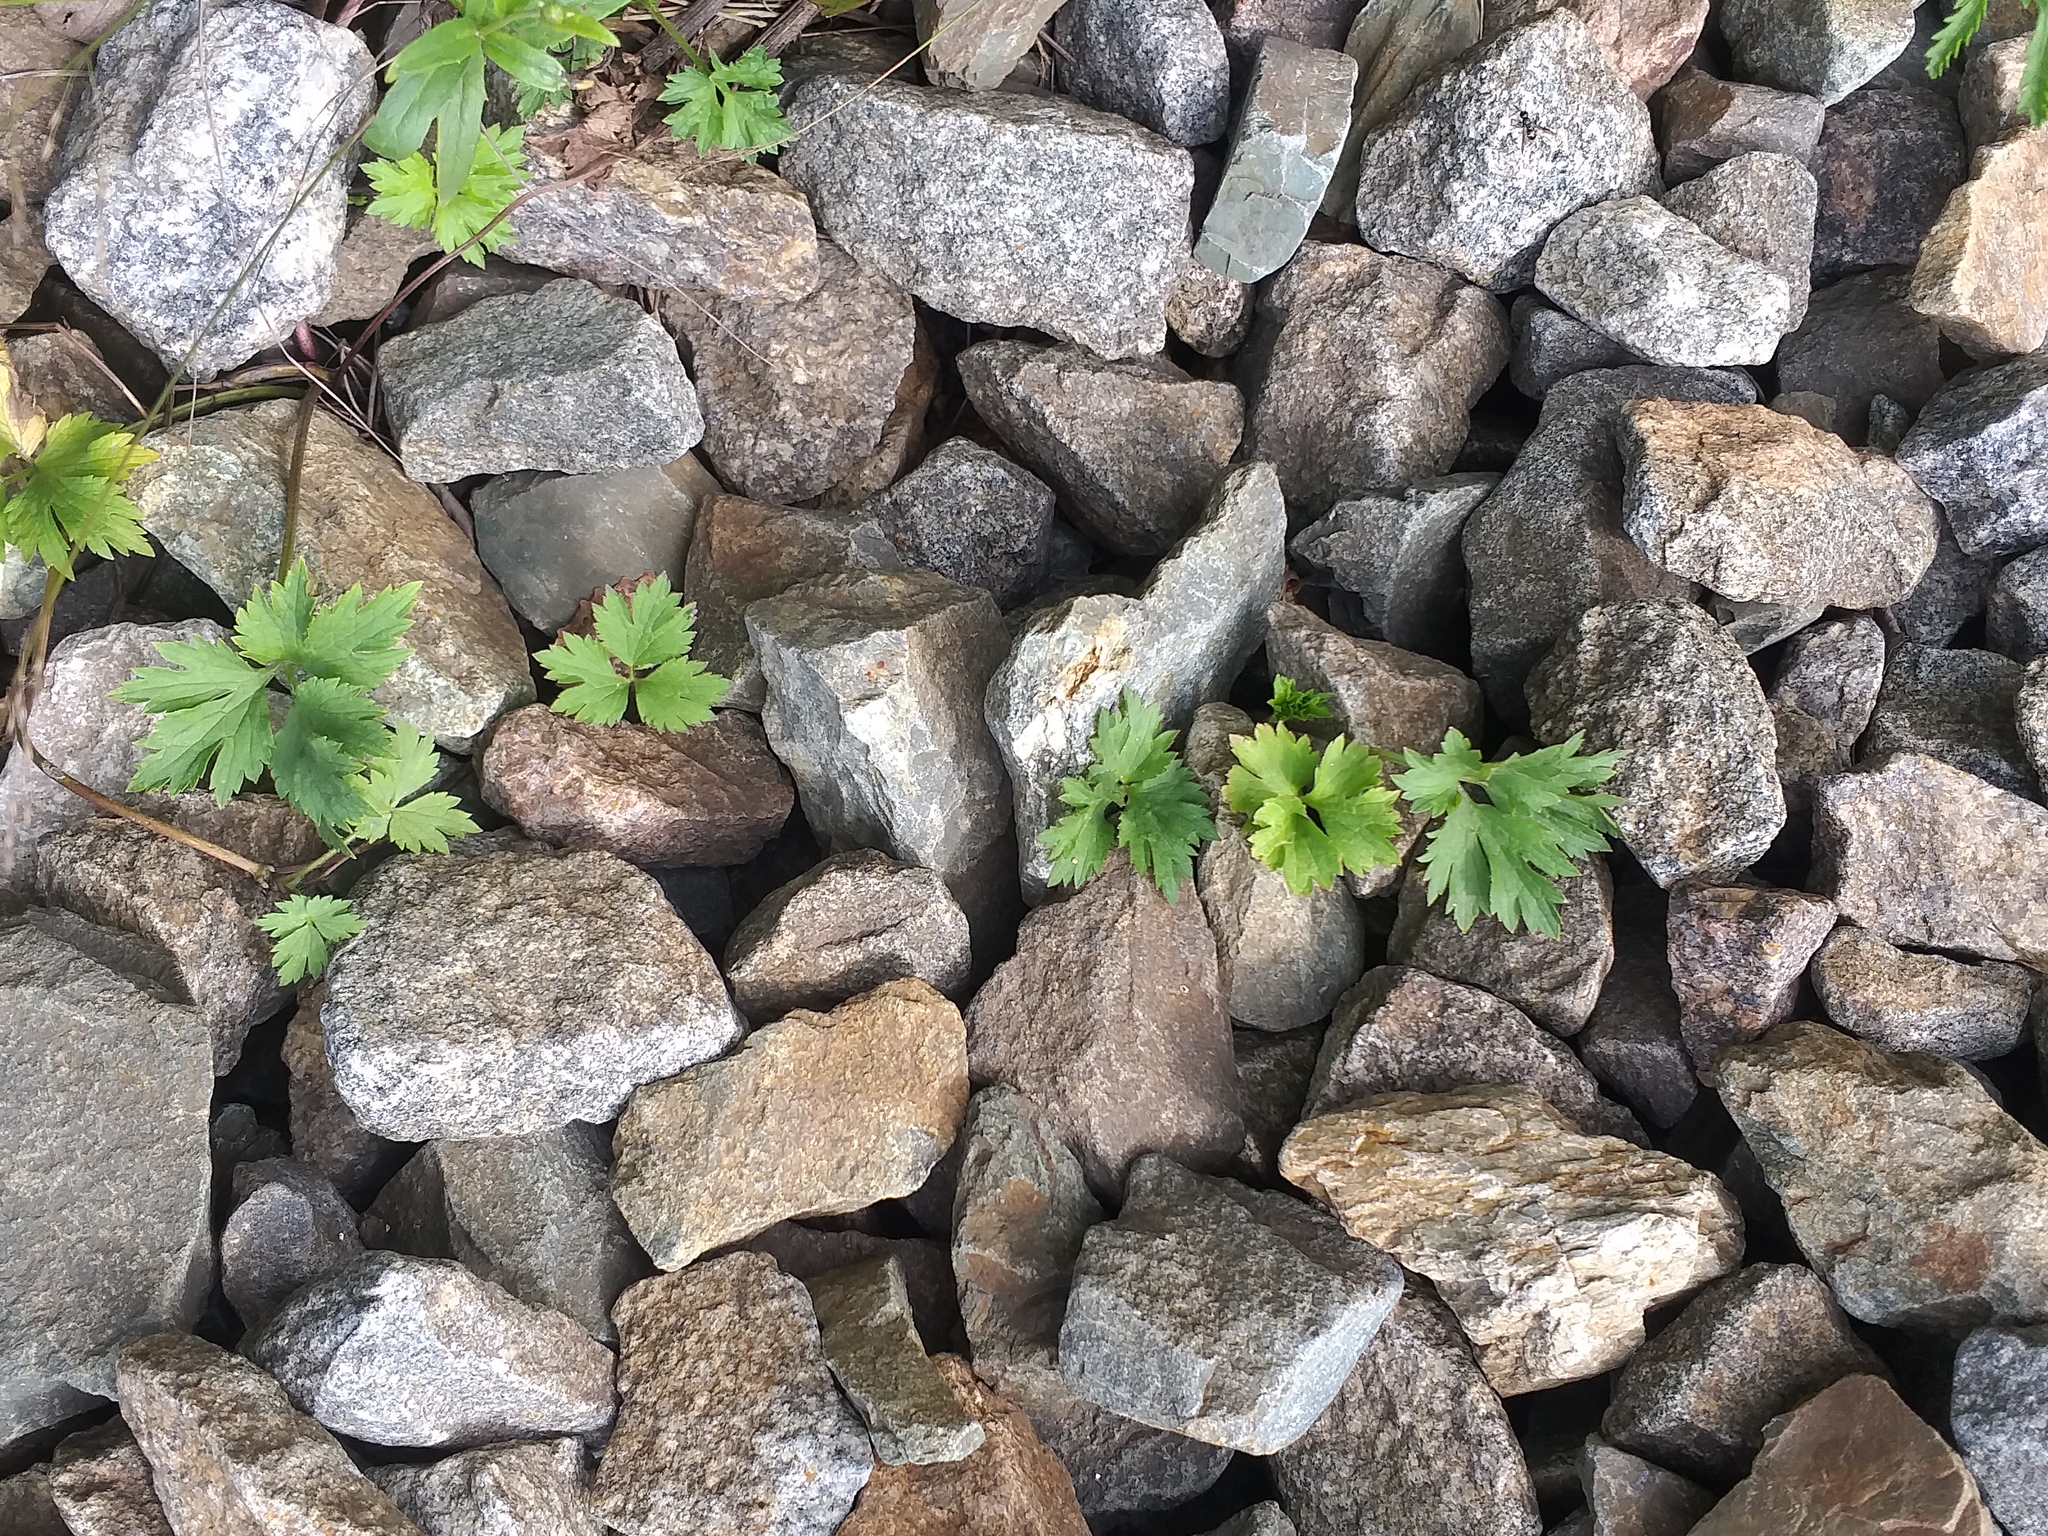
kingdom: Plantae
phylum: Tracheophyta
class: Magnoliopsida
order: Ranunculales
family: Ranunculaceae
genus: Ranunculus
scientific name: Ranunculus repens
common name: Creeping buttercup
